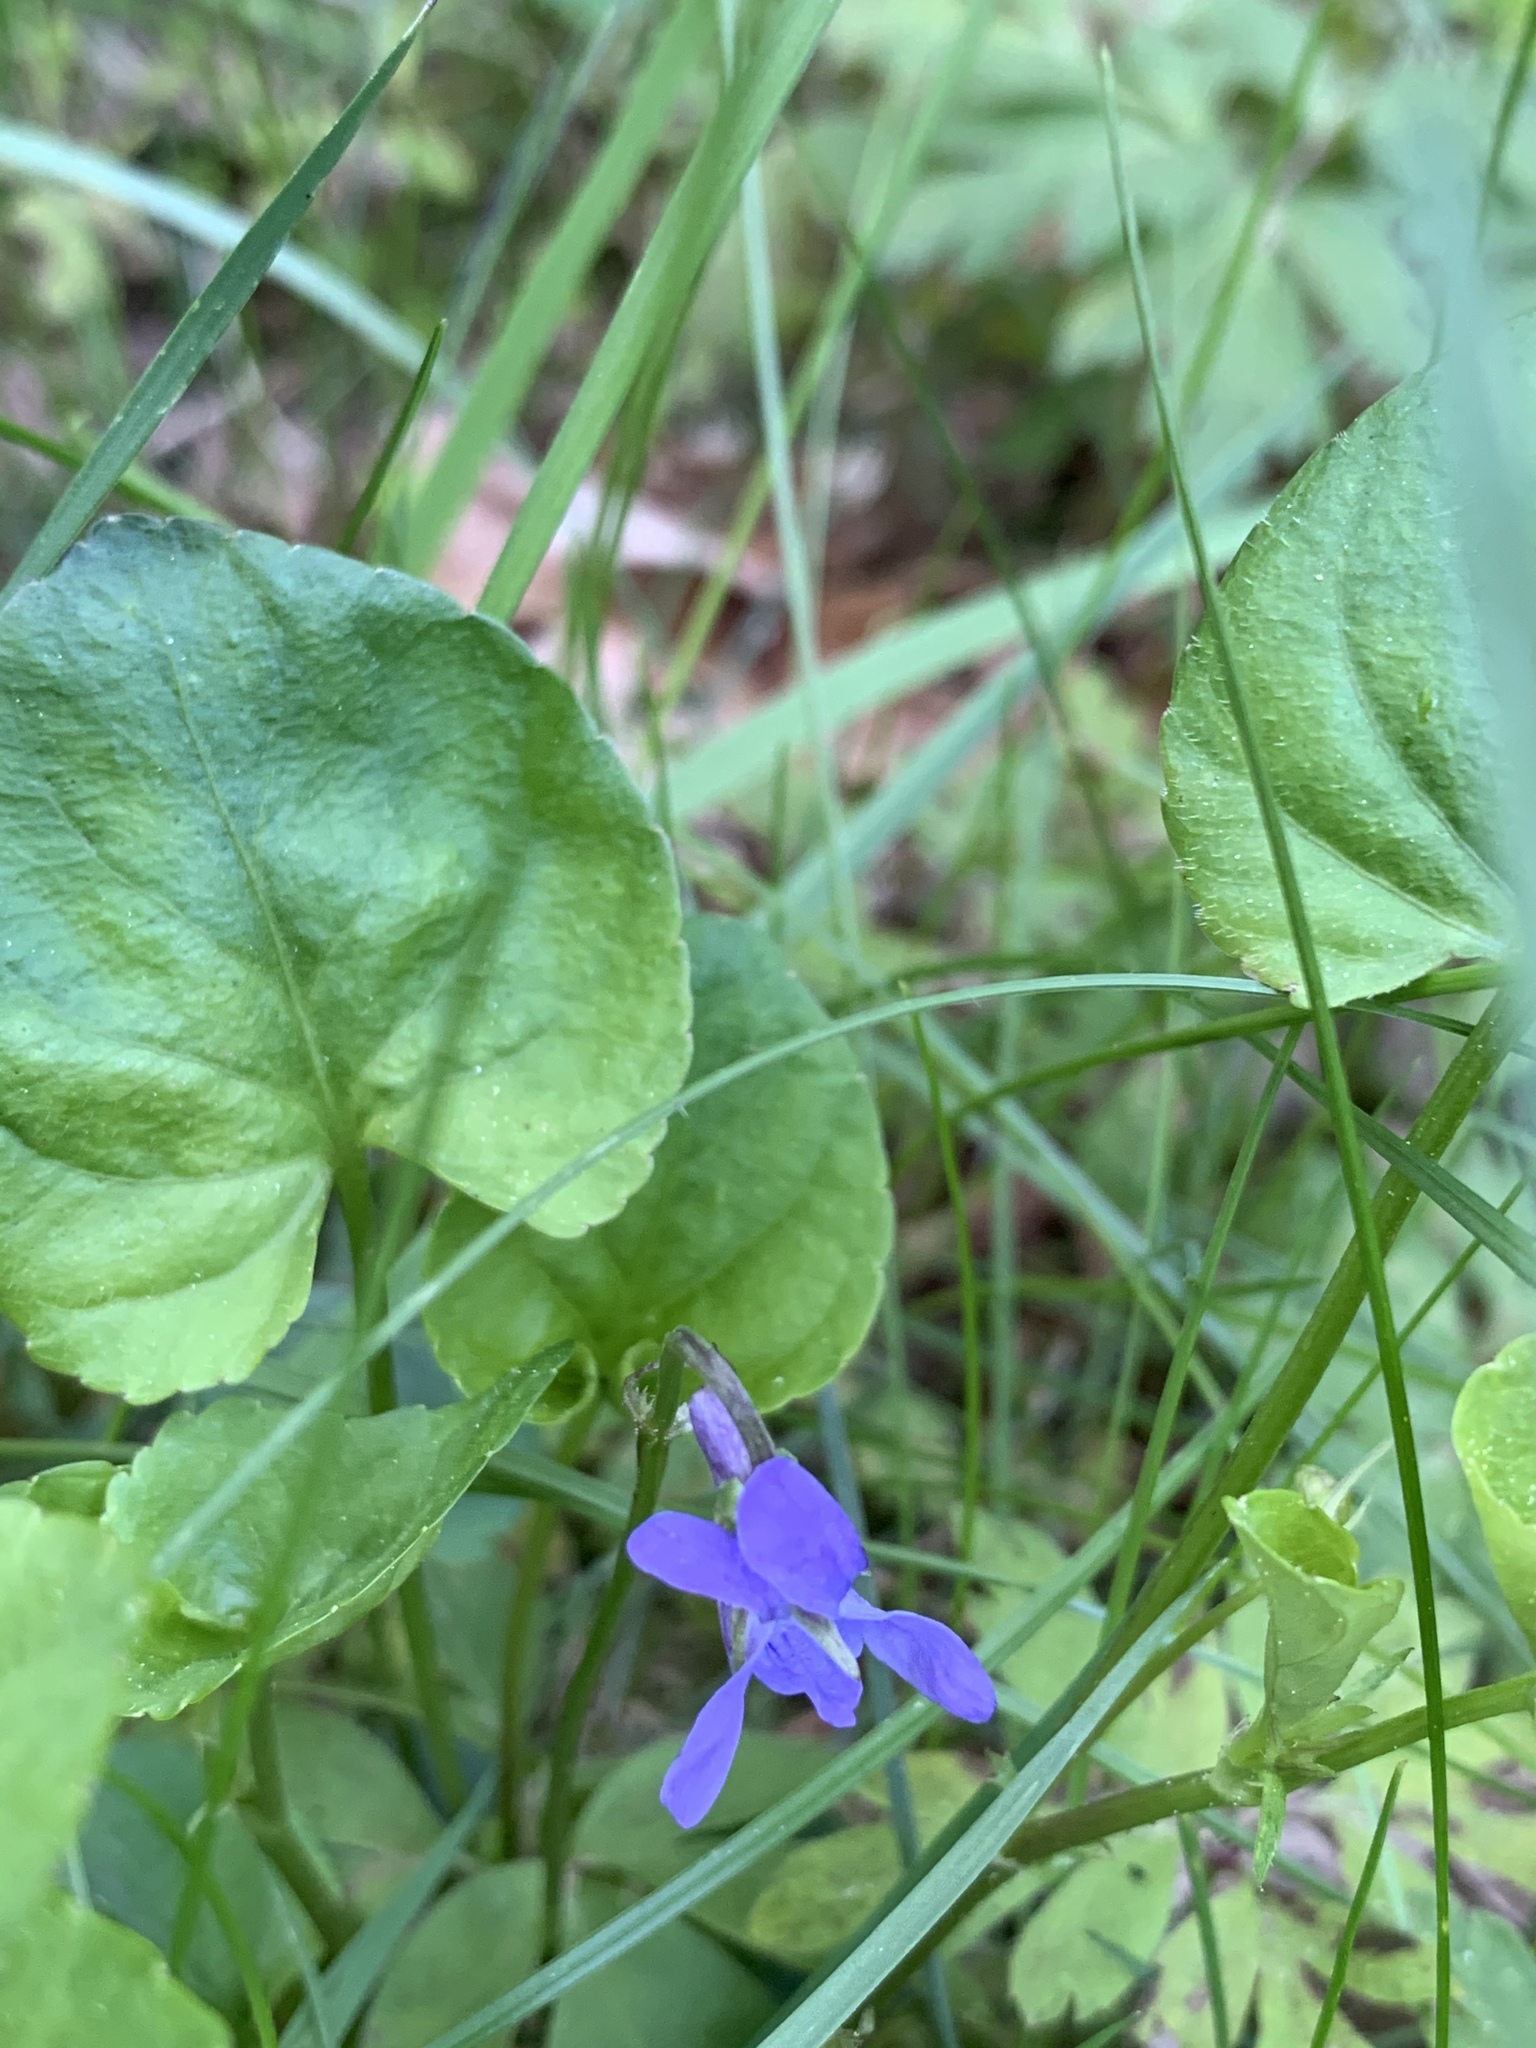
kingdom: Plantae
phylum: Tracheophyta
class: Magnoliopsida
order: Malpighiales
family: Violaceae
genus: Viola
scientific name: Viola riviniana
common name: Common dog-violet
